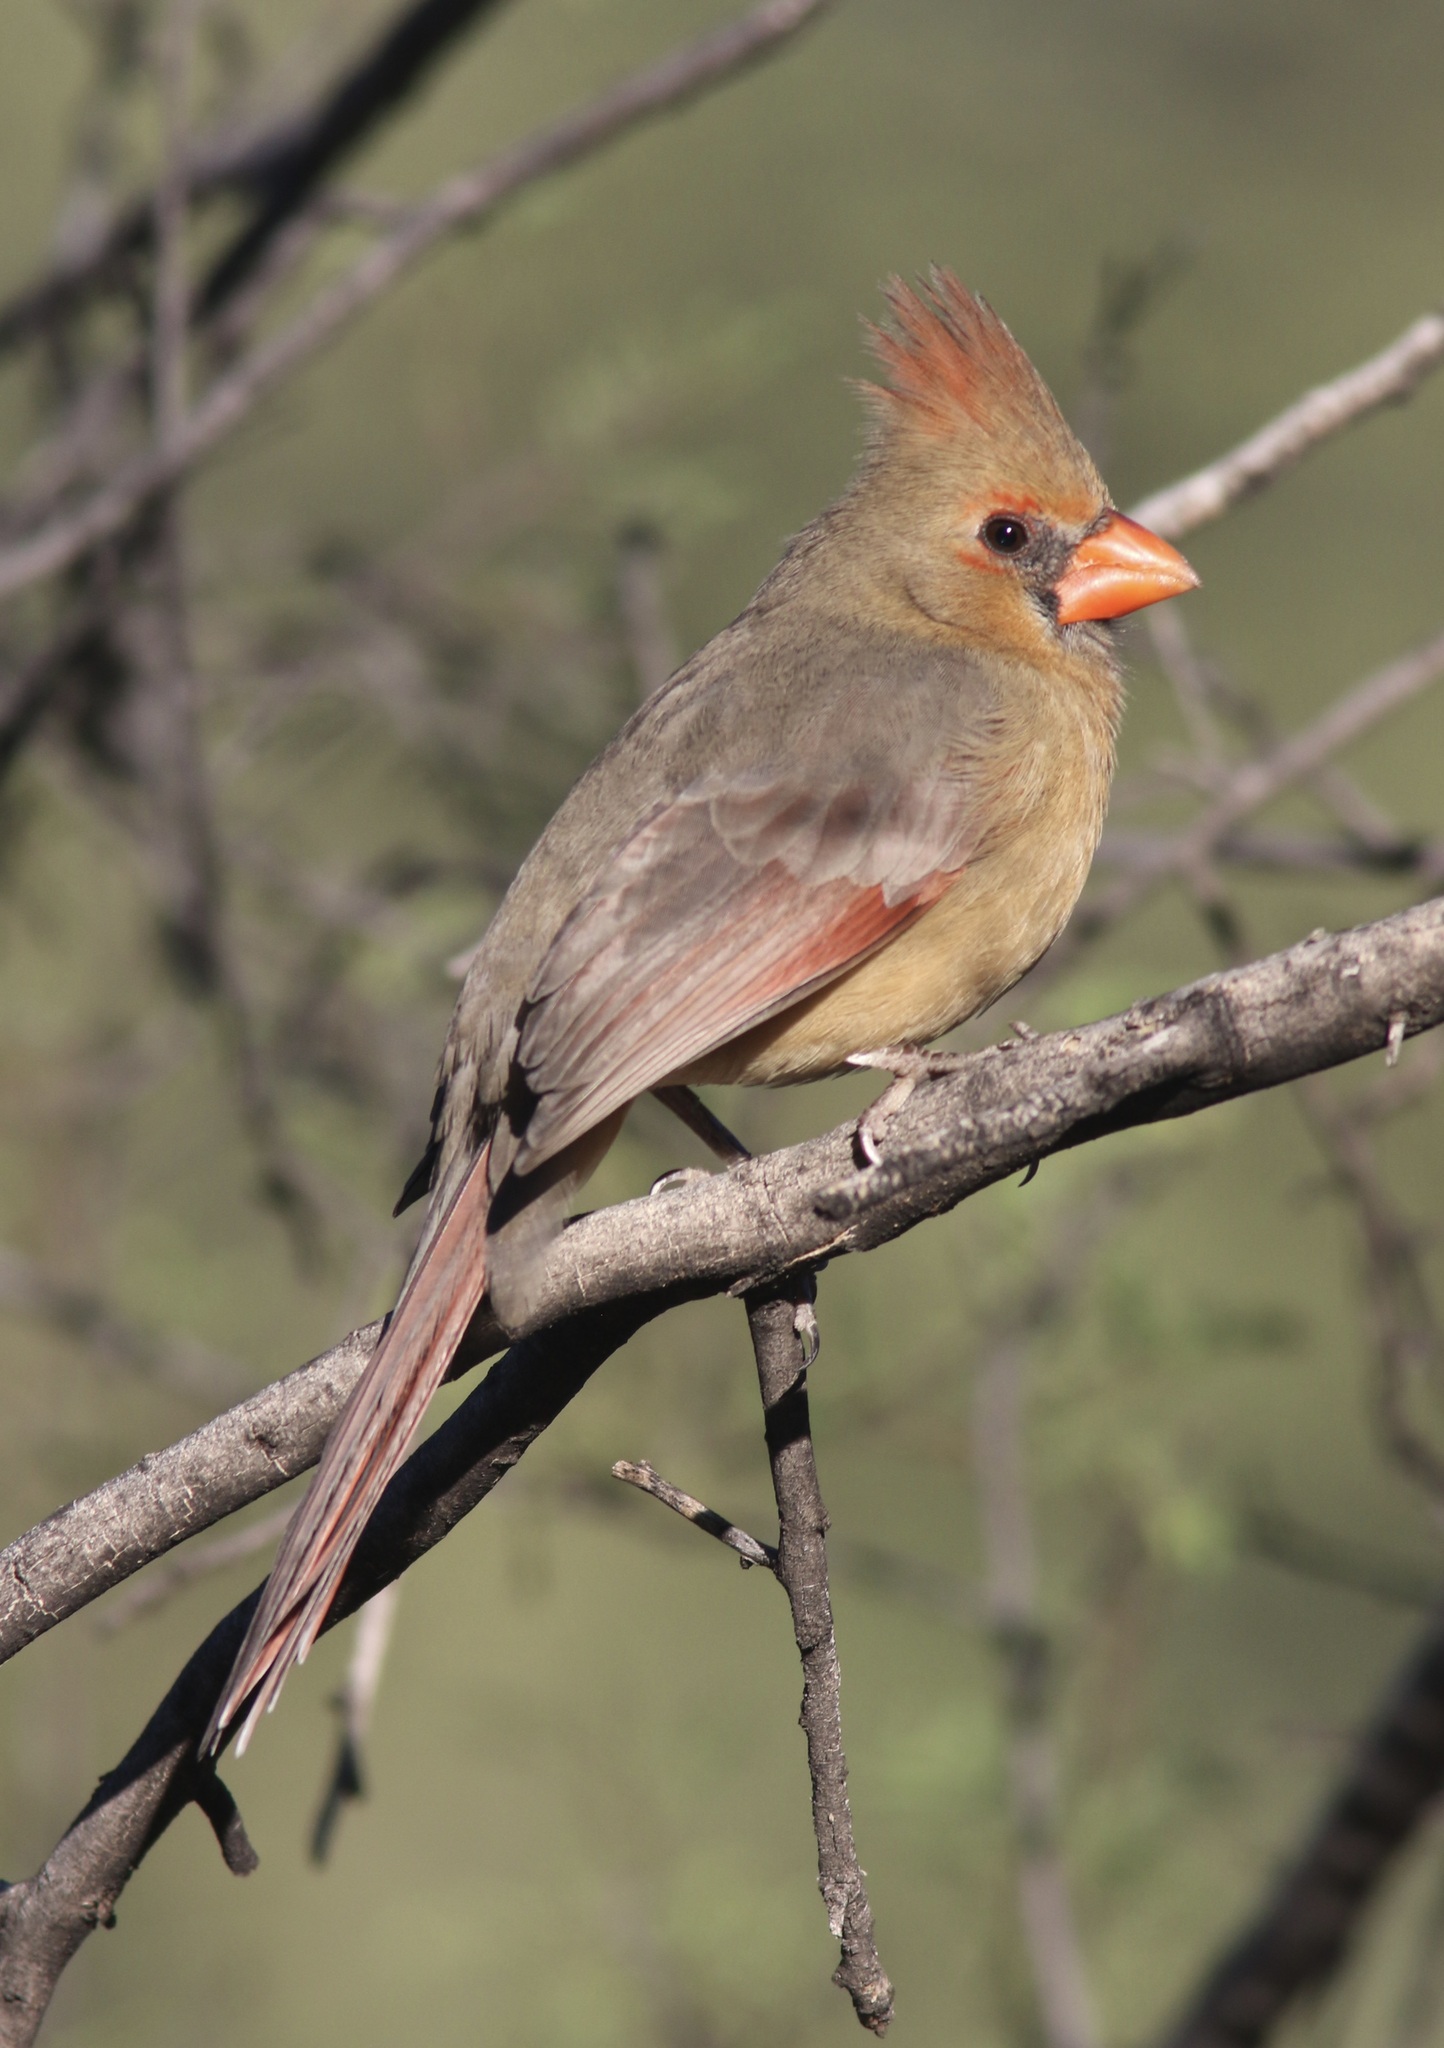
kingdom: Animalia
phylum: Chordata
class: Aves
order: Passeriformes
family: Cardinalidae
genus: Cardinalis
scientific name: Cardinalis cardinalis
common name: Northern cardinal
